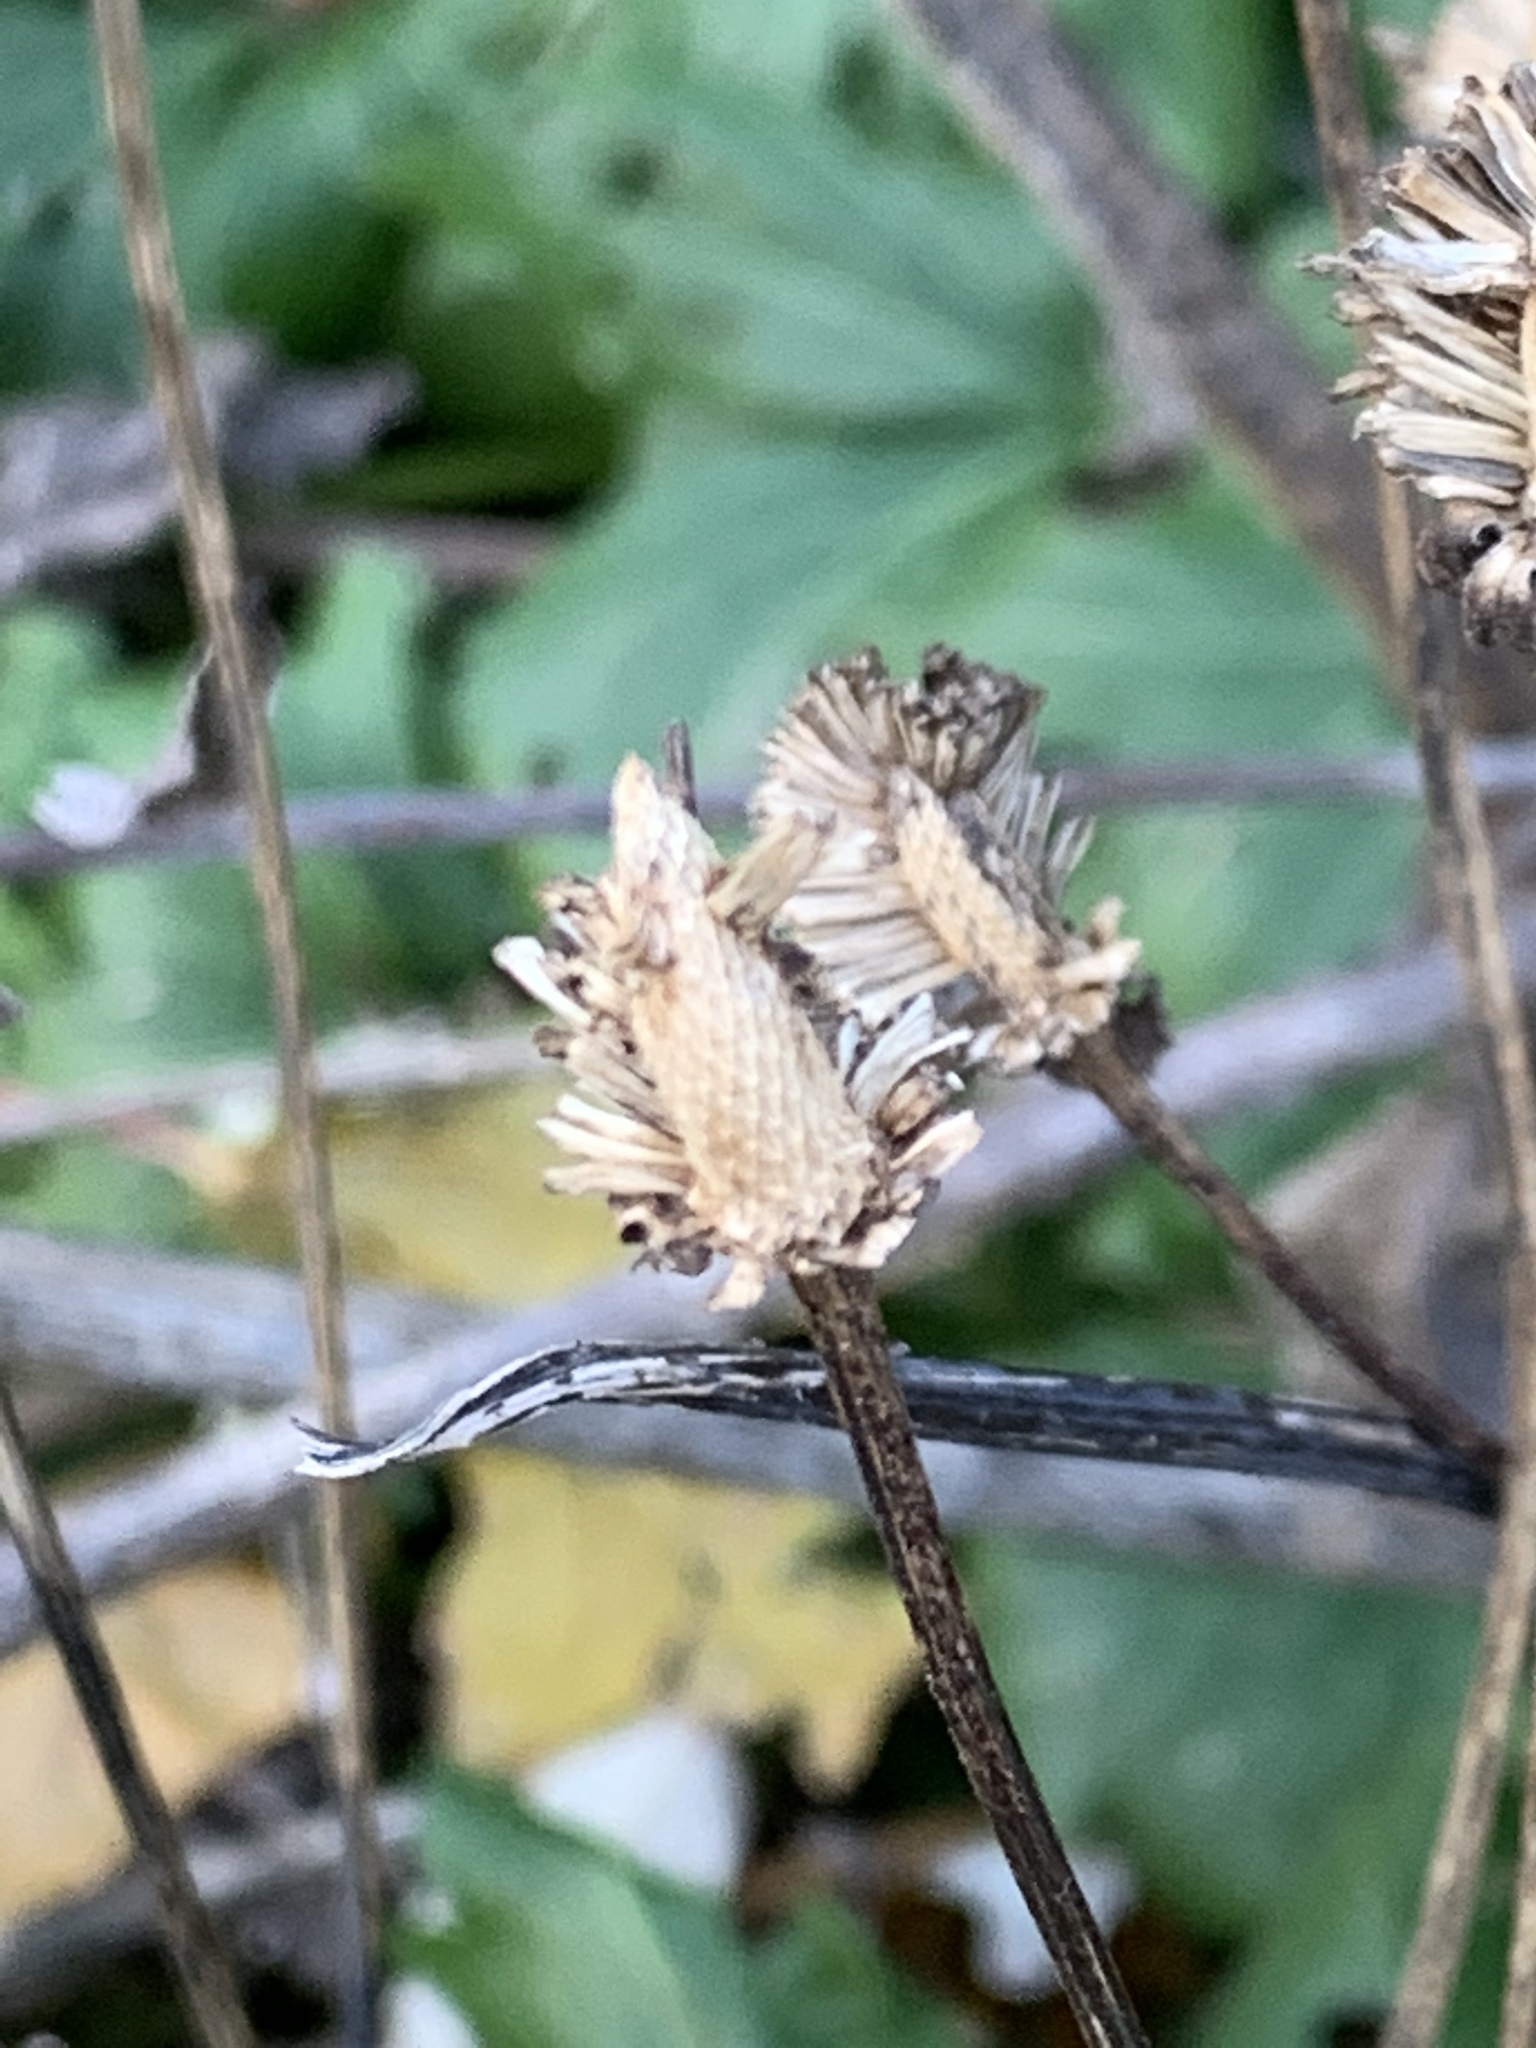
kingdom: Plantae
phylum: Tracheophyta
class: Magnoliopsida
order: Asterales
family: Asteraceae
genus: Rudbeckia
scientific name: Rudbeckia laciniata
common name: Coneflower
